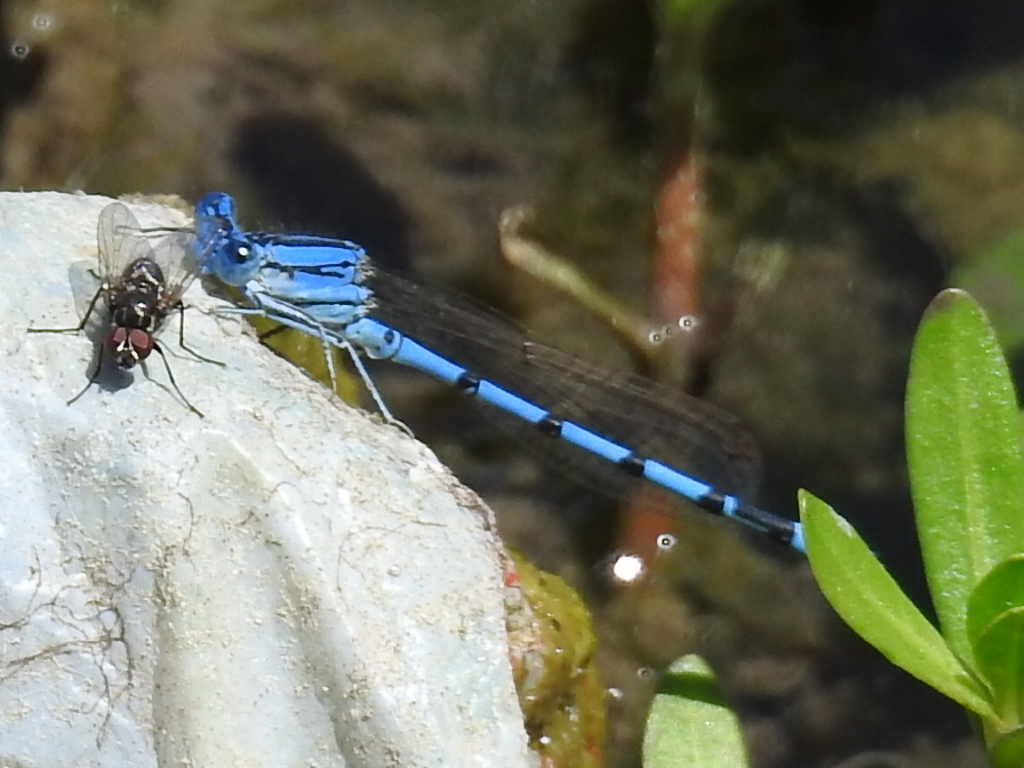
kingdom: Animalia
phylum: Arthropoda
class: Insecta
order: Odonata
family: Coenagrionidae
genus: Argia
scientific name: Argia nahuana
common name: Aztec dancer
